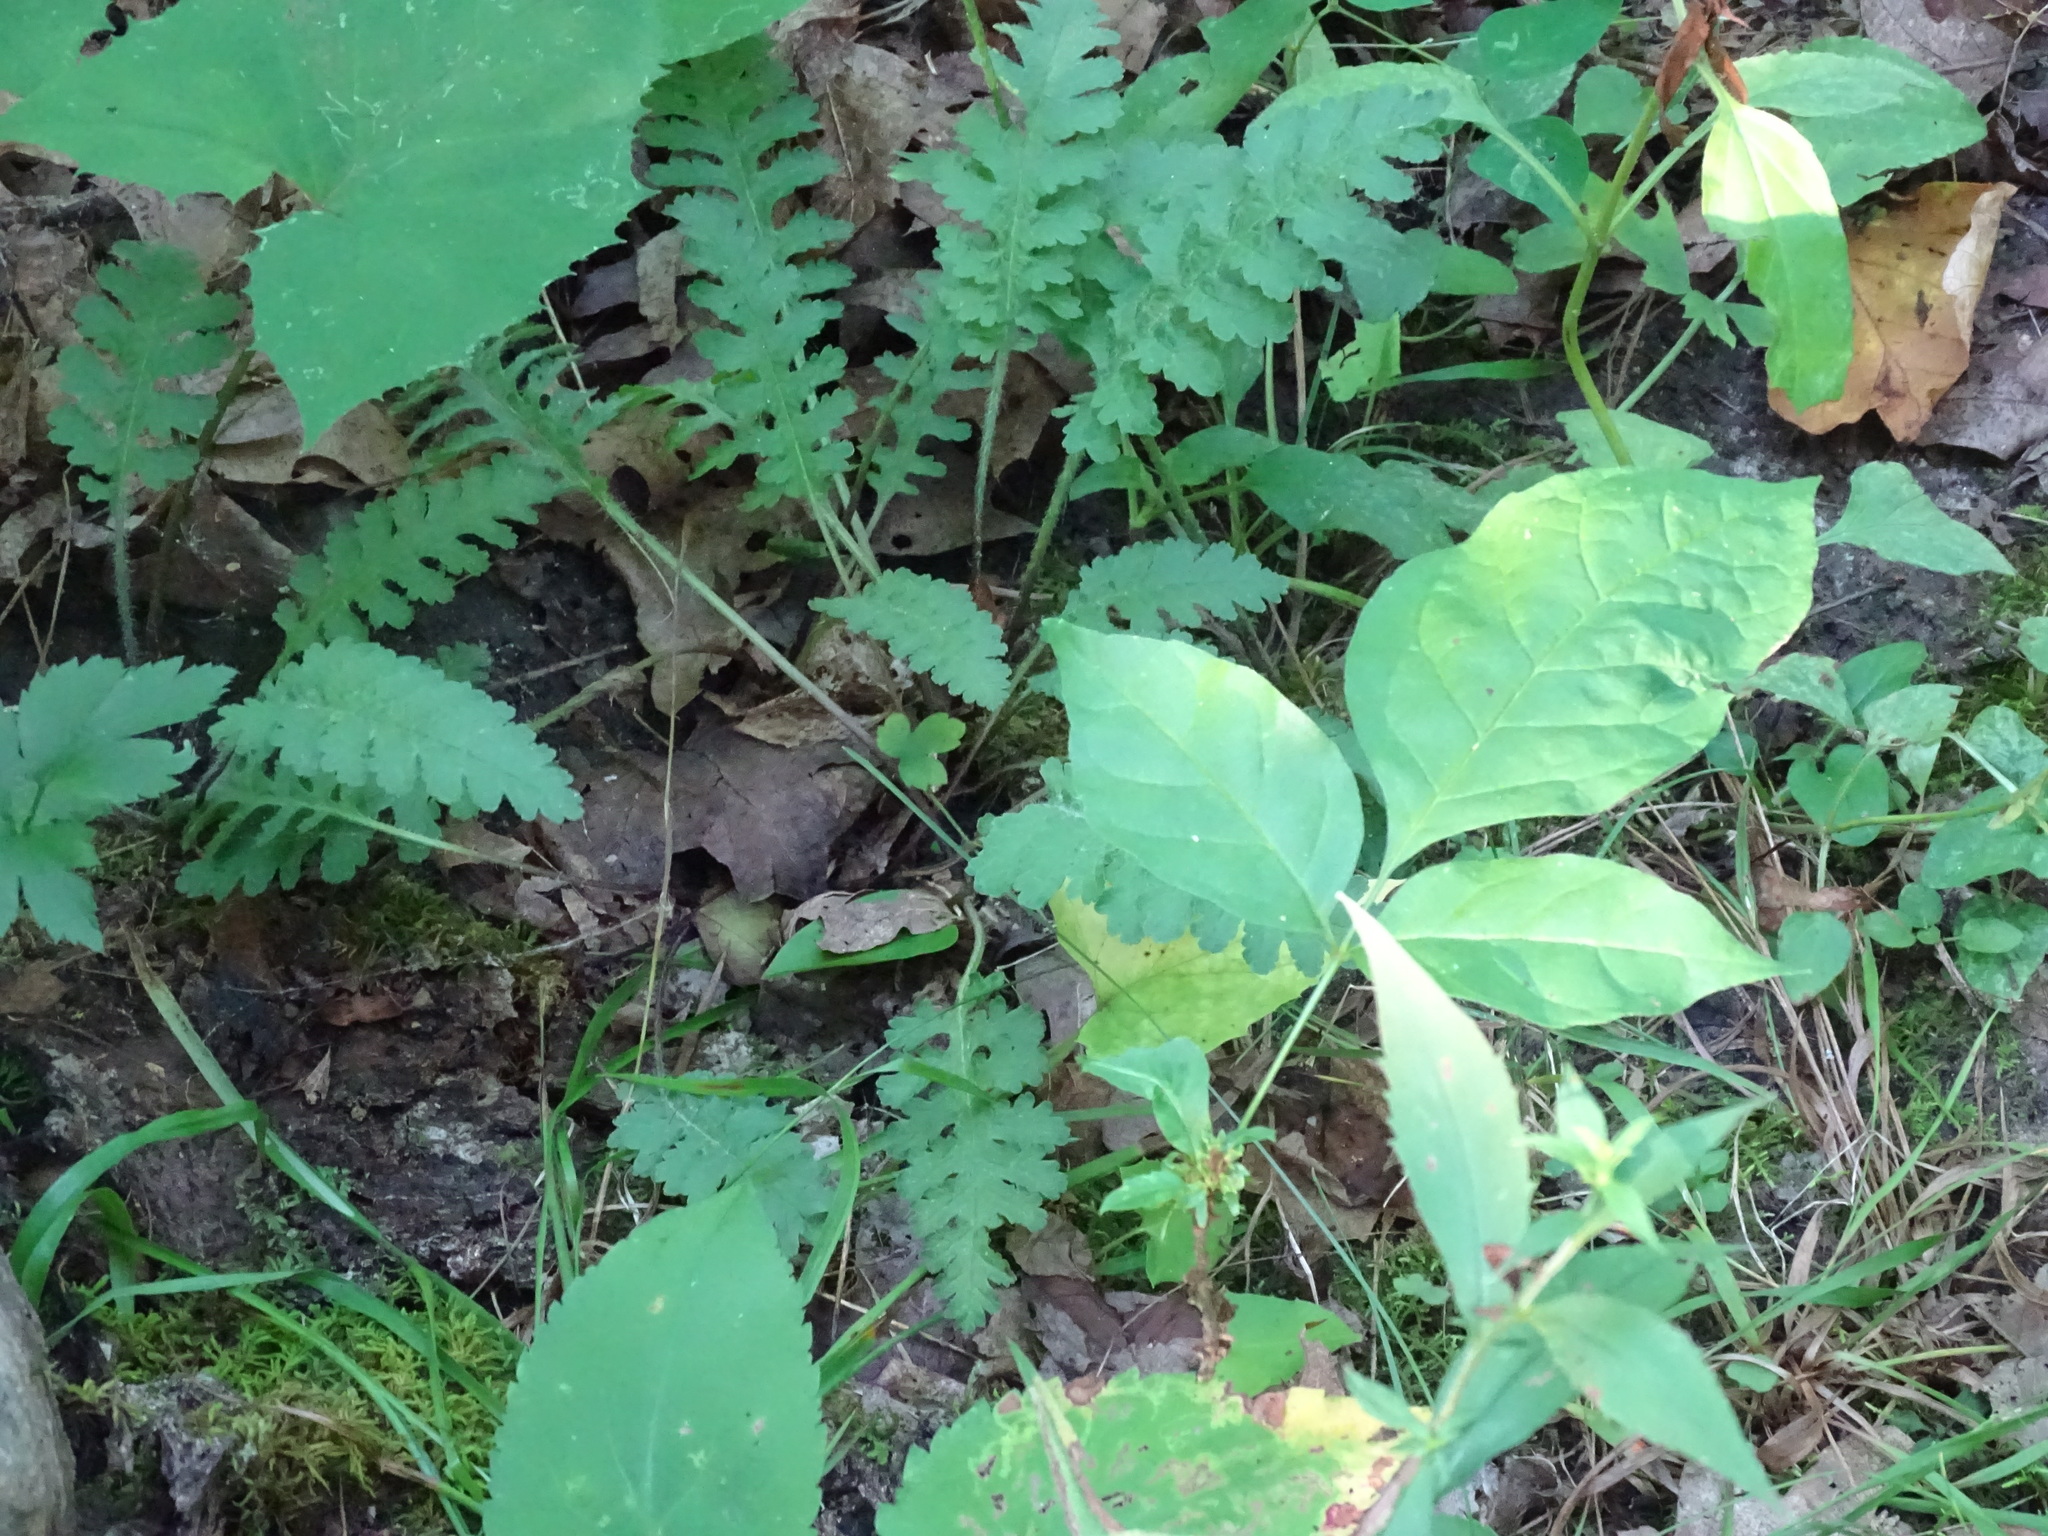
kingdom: Plantae
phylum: Tracheophyta
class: Magnoliopsida
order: Lamiales
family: Orobanchaceae
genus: Pedicularis
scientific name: Pedicularis canadensis
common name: Early lousewort
